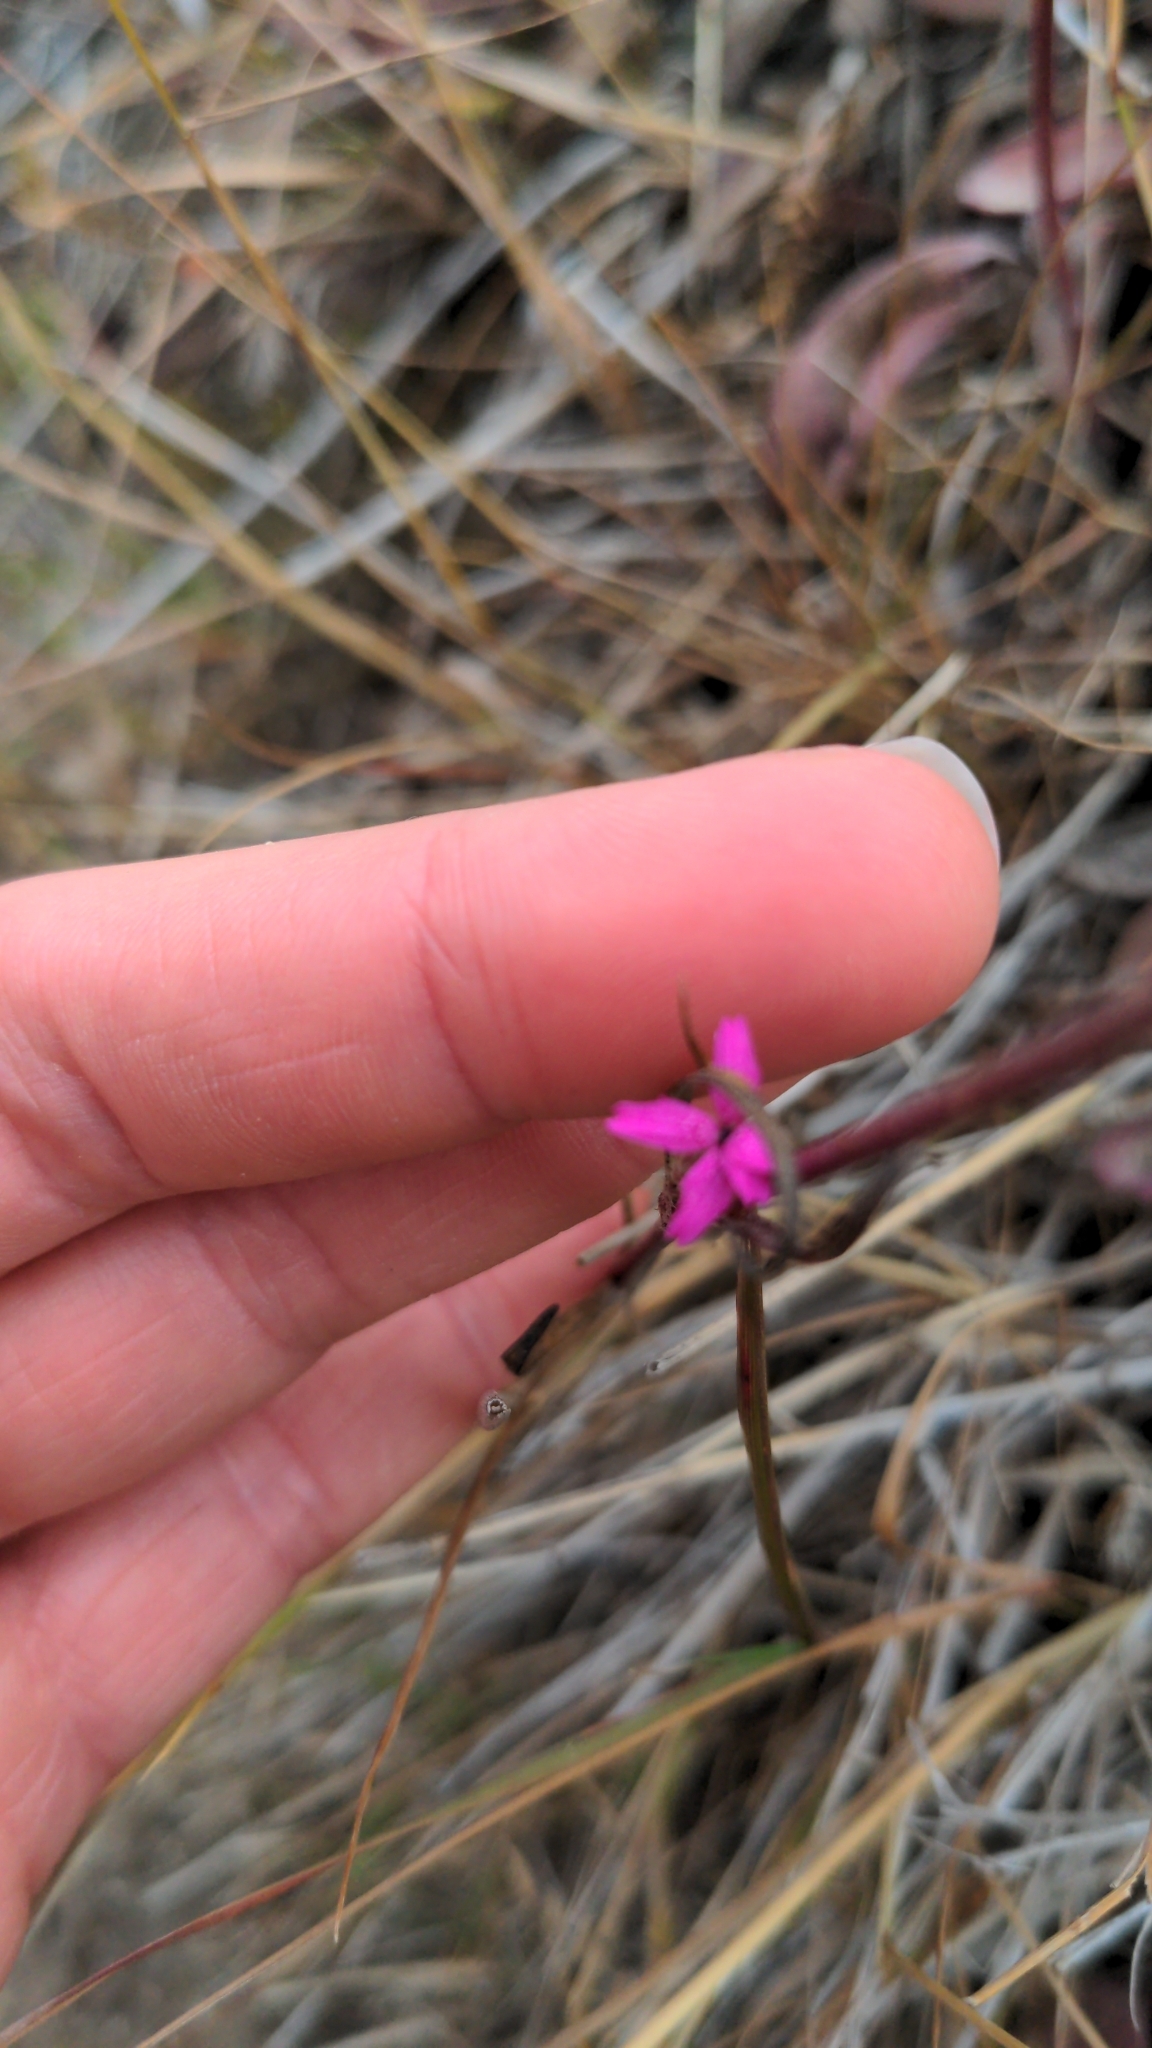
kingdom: Plantae
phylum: Tracheophyta
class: Magnoliopsida
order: Caryophyllales
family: Caryophyllaceae
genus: Dianthus
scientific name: Dianthus deltoides
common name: Maiden pink
